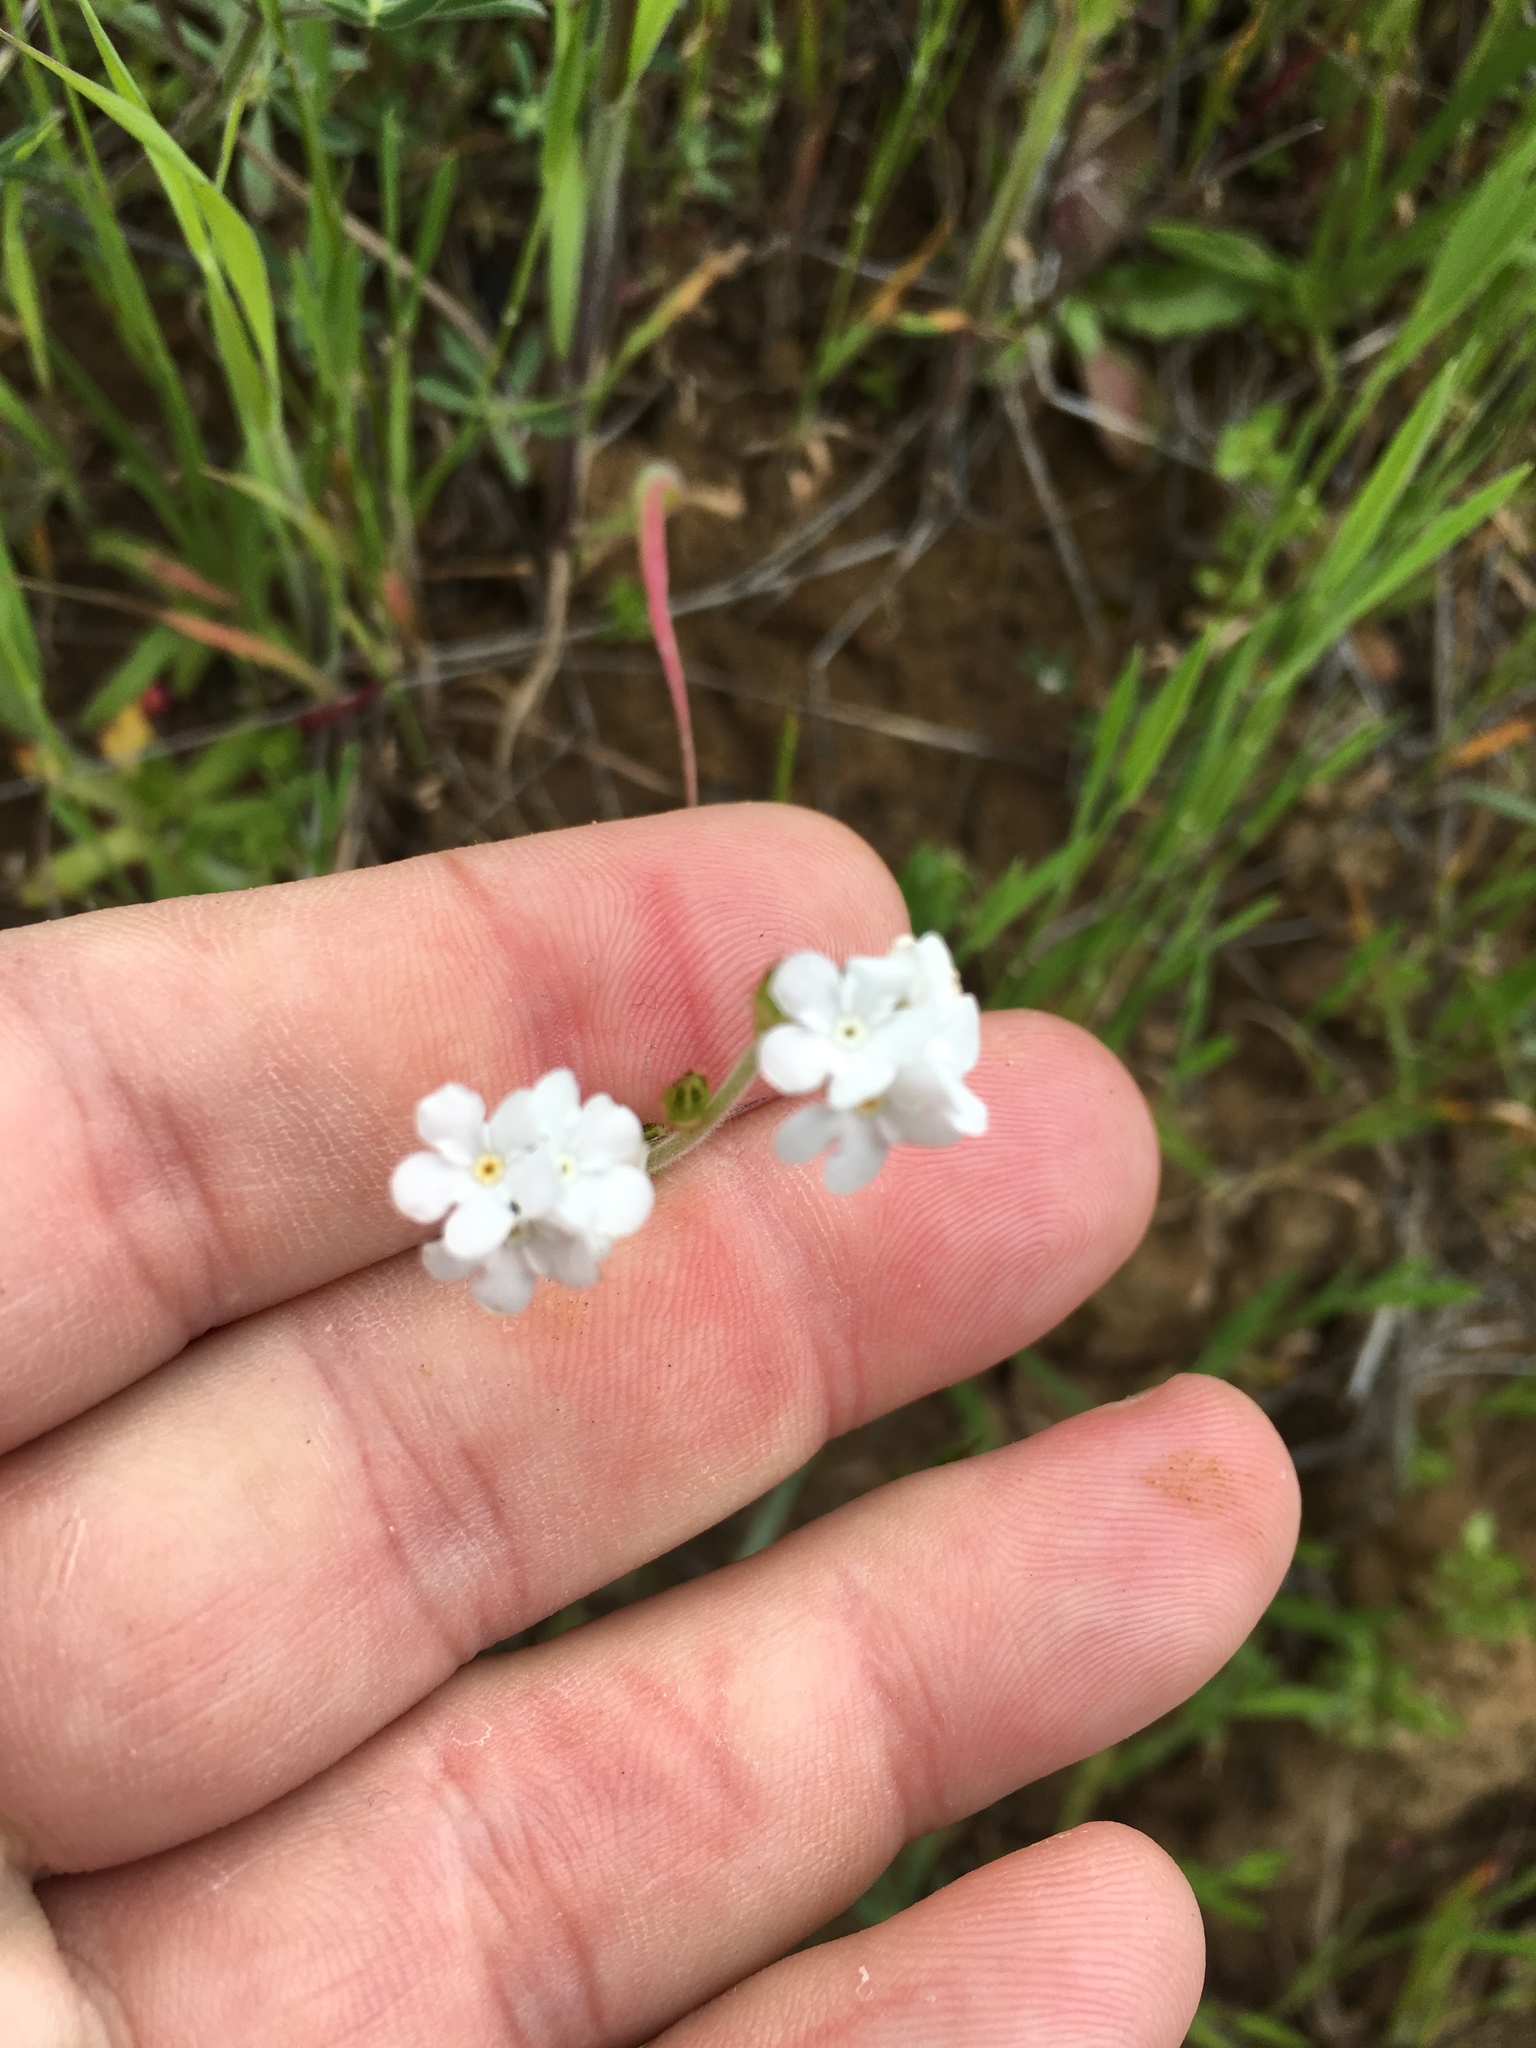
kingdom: Plantae
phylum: Tracheophyta
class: Magnoliopsida
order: Boraginales
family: Boraginaceae
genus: Plagiobothrys
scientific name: Plagiobothrys nothofulvus
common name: Popcorn-flower
